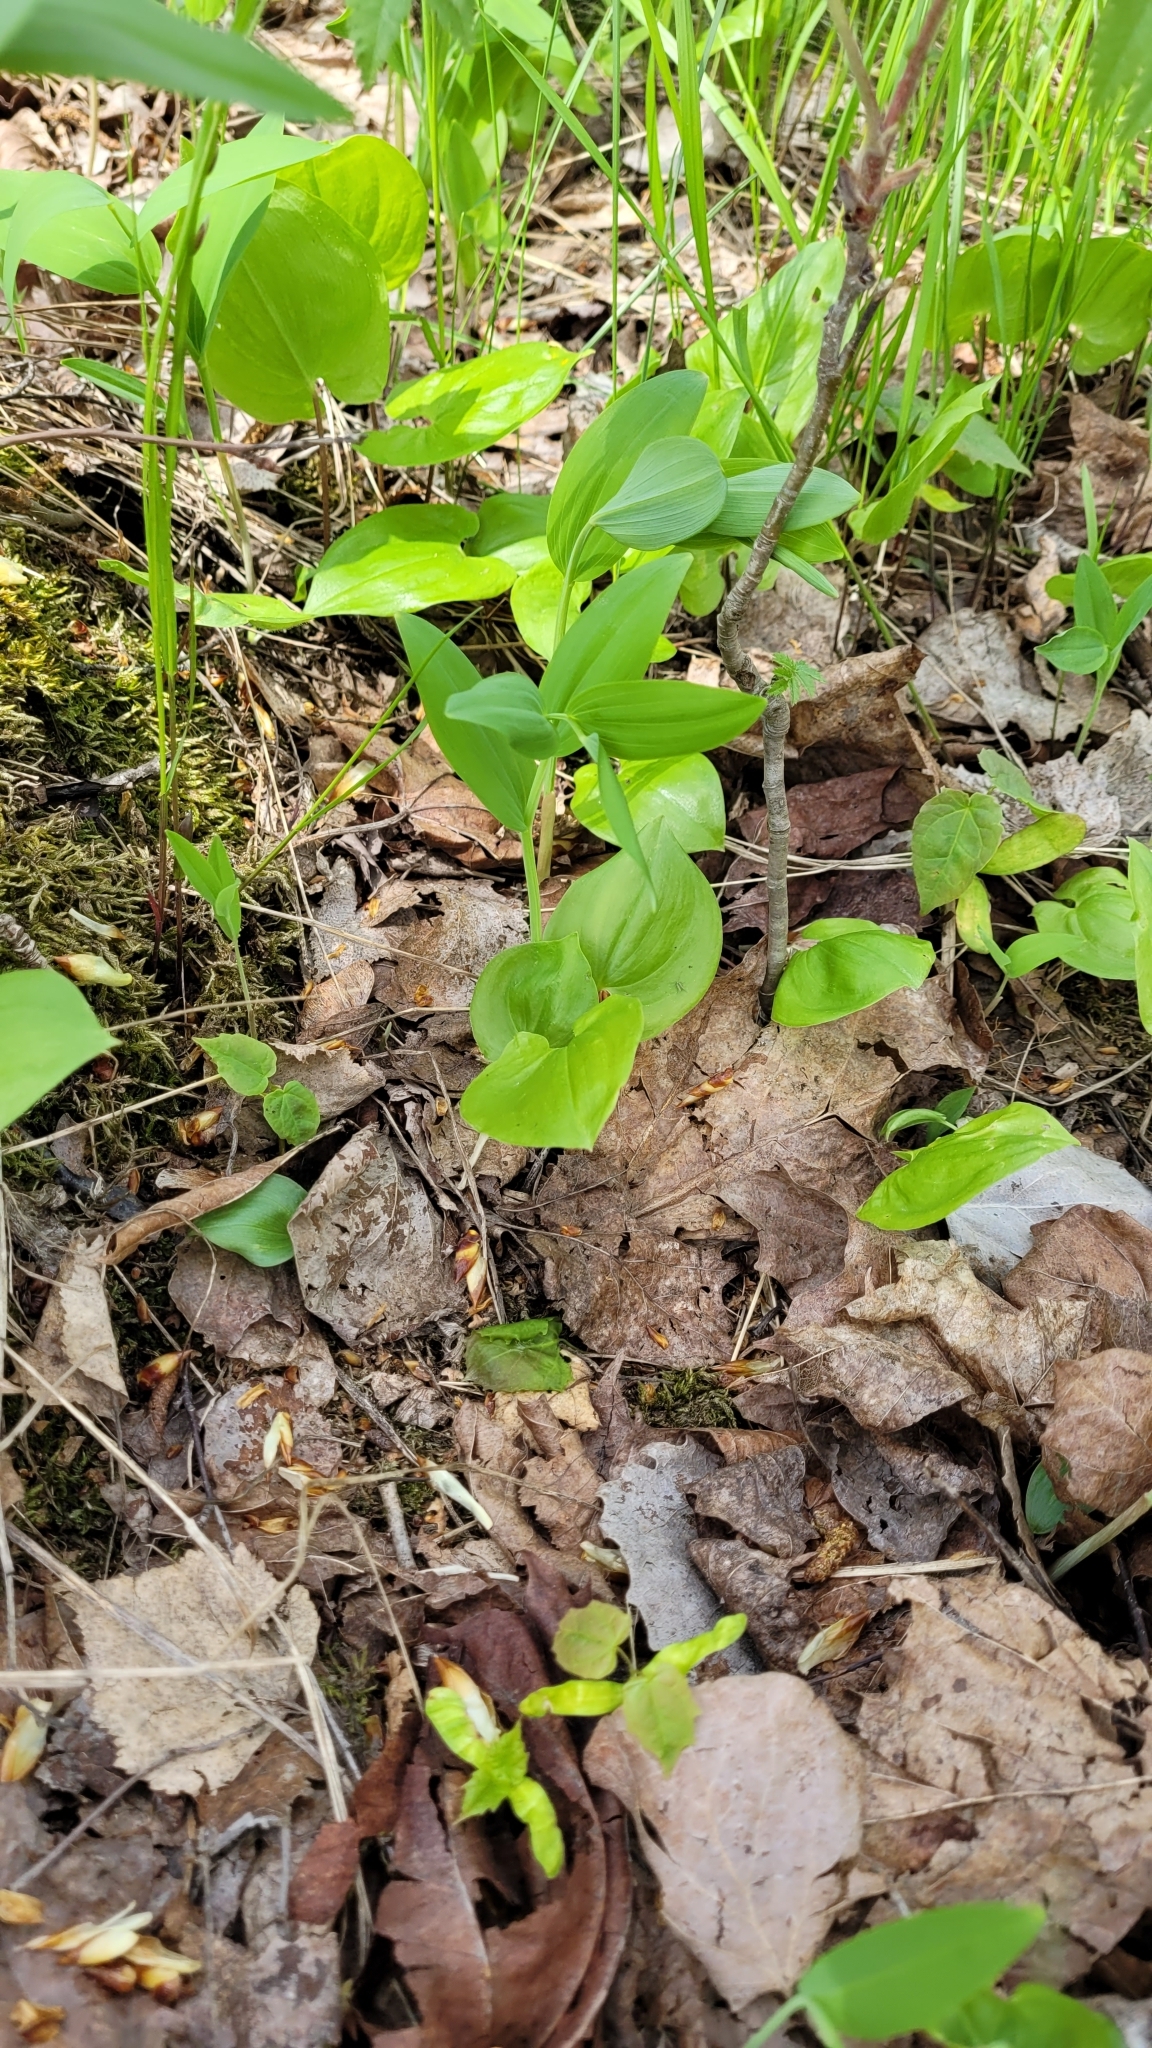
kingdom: Plantae
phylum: Tracheophyta
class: Liliopsida
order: Asparagales
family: Asparagaceae
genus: Maianthemum
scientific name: Maianthemum bifolium
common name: May lily
